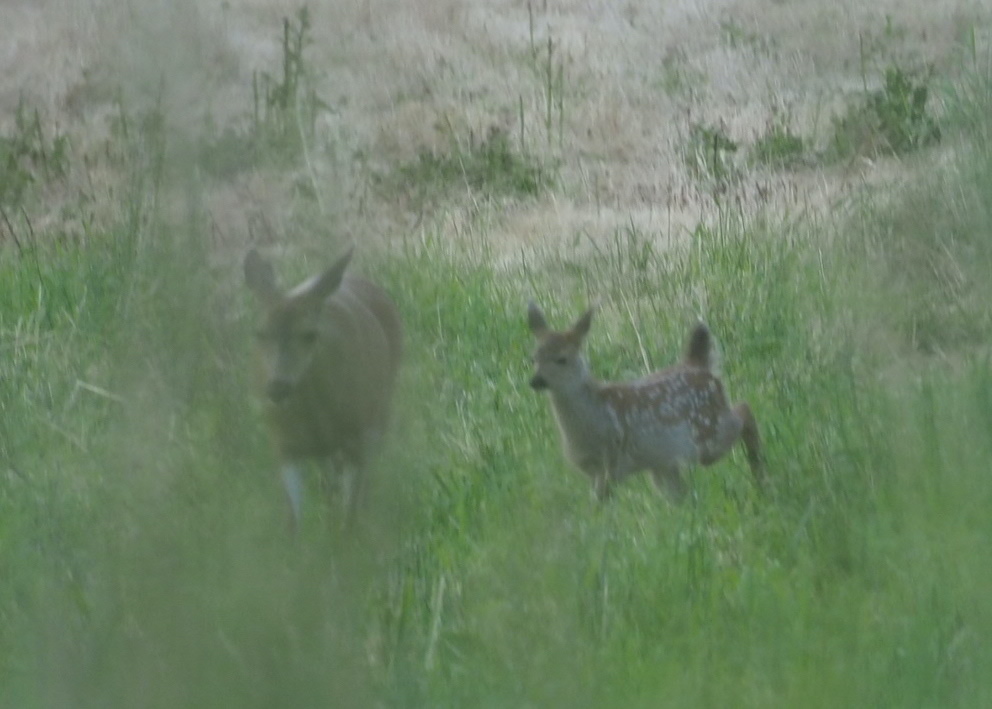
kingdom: Animalia
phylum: Chordata
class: Mammalia
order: Artiodactyla
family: Cervidae
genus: Odocoileus
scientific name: Odocoileus hemionus
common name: Mule deer
